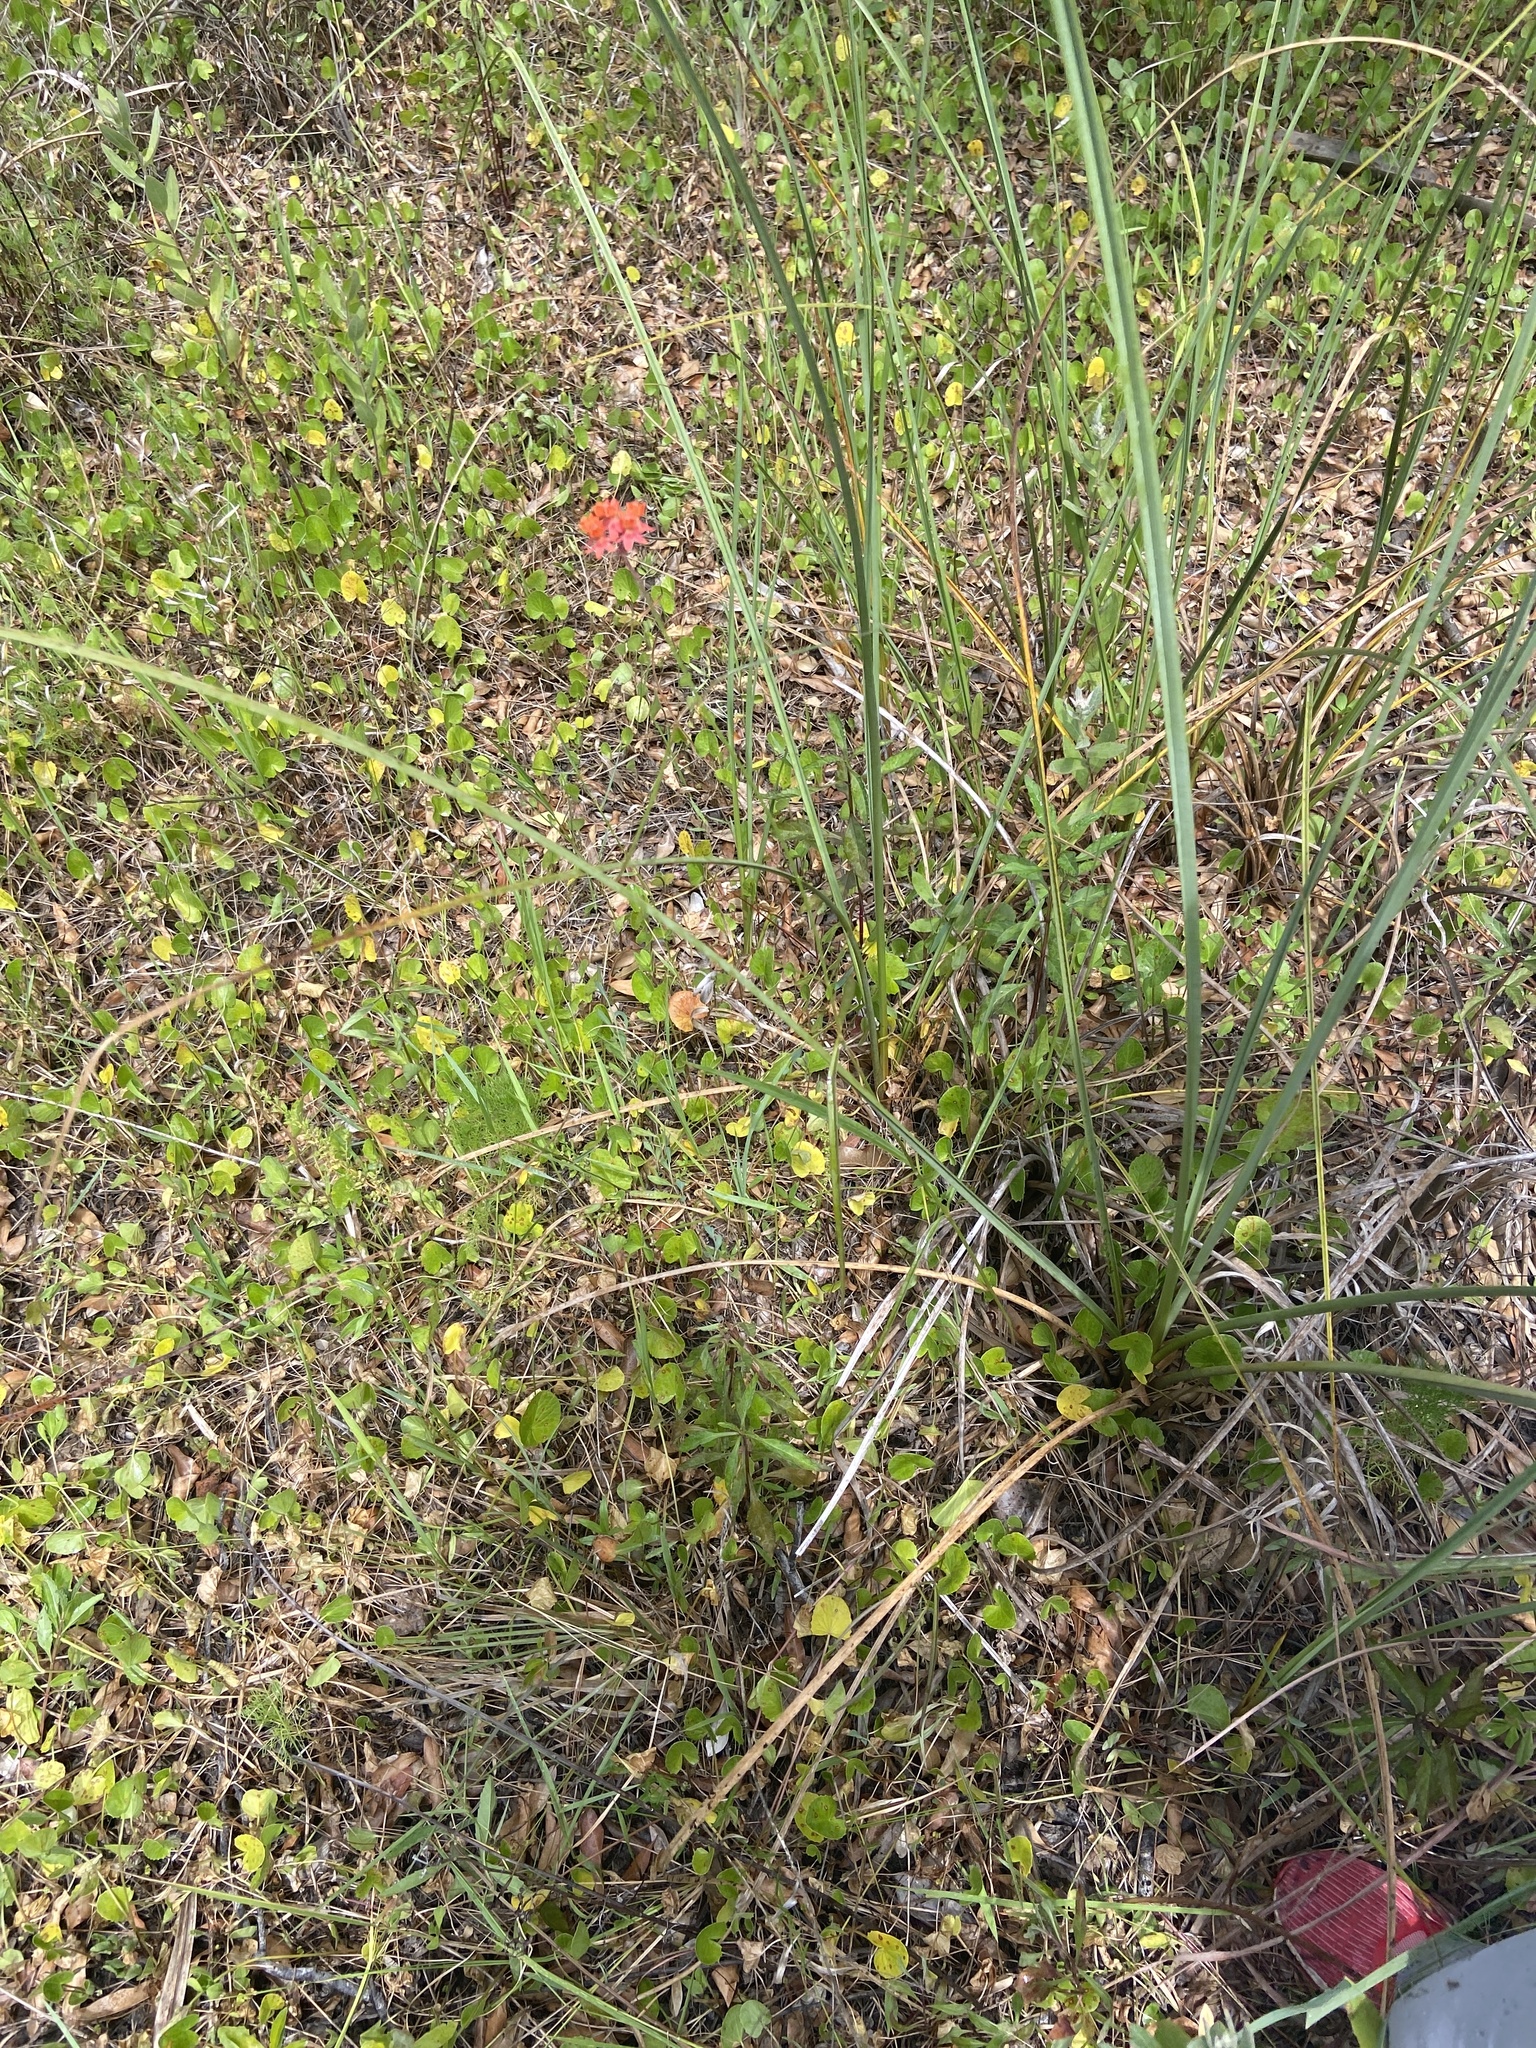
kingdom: Plantae
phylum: Tracheophyta
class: Magnoliopsida
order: Gentianales
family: Apocynaceae
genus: Asclepias
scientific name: Asclepias lanceolata
